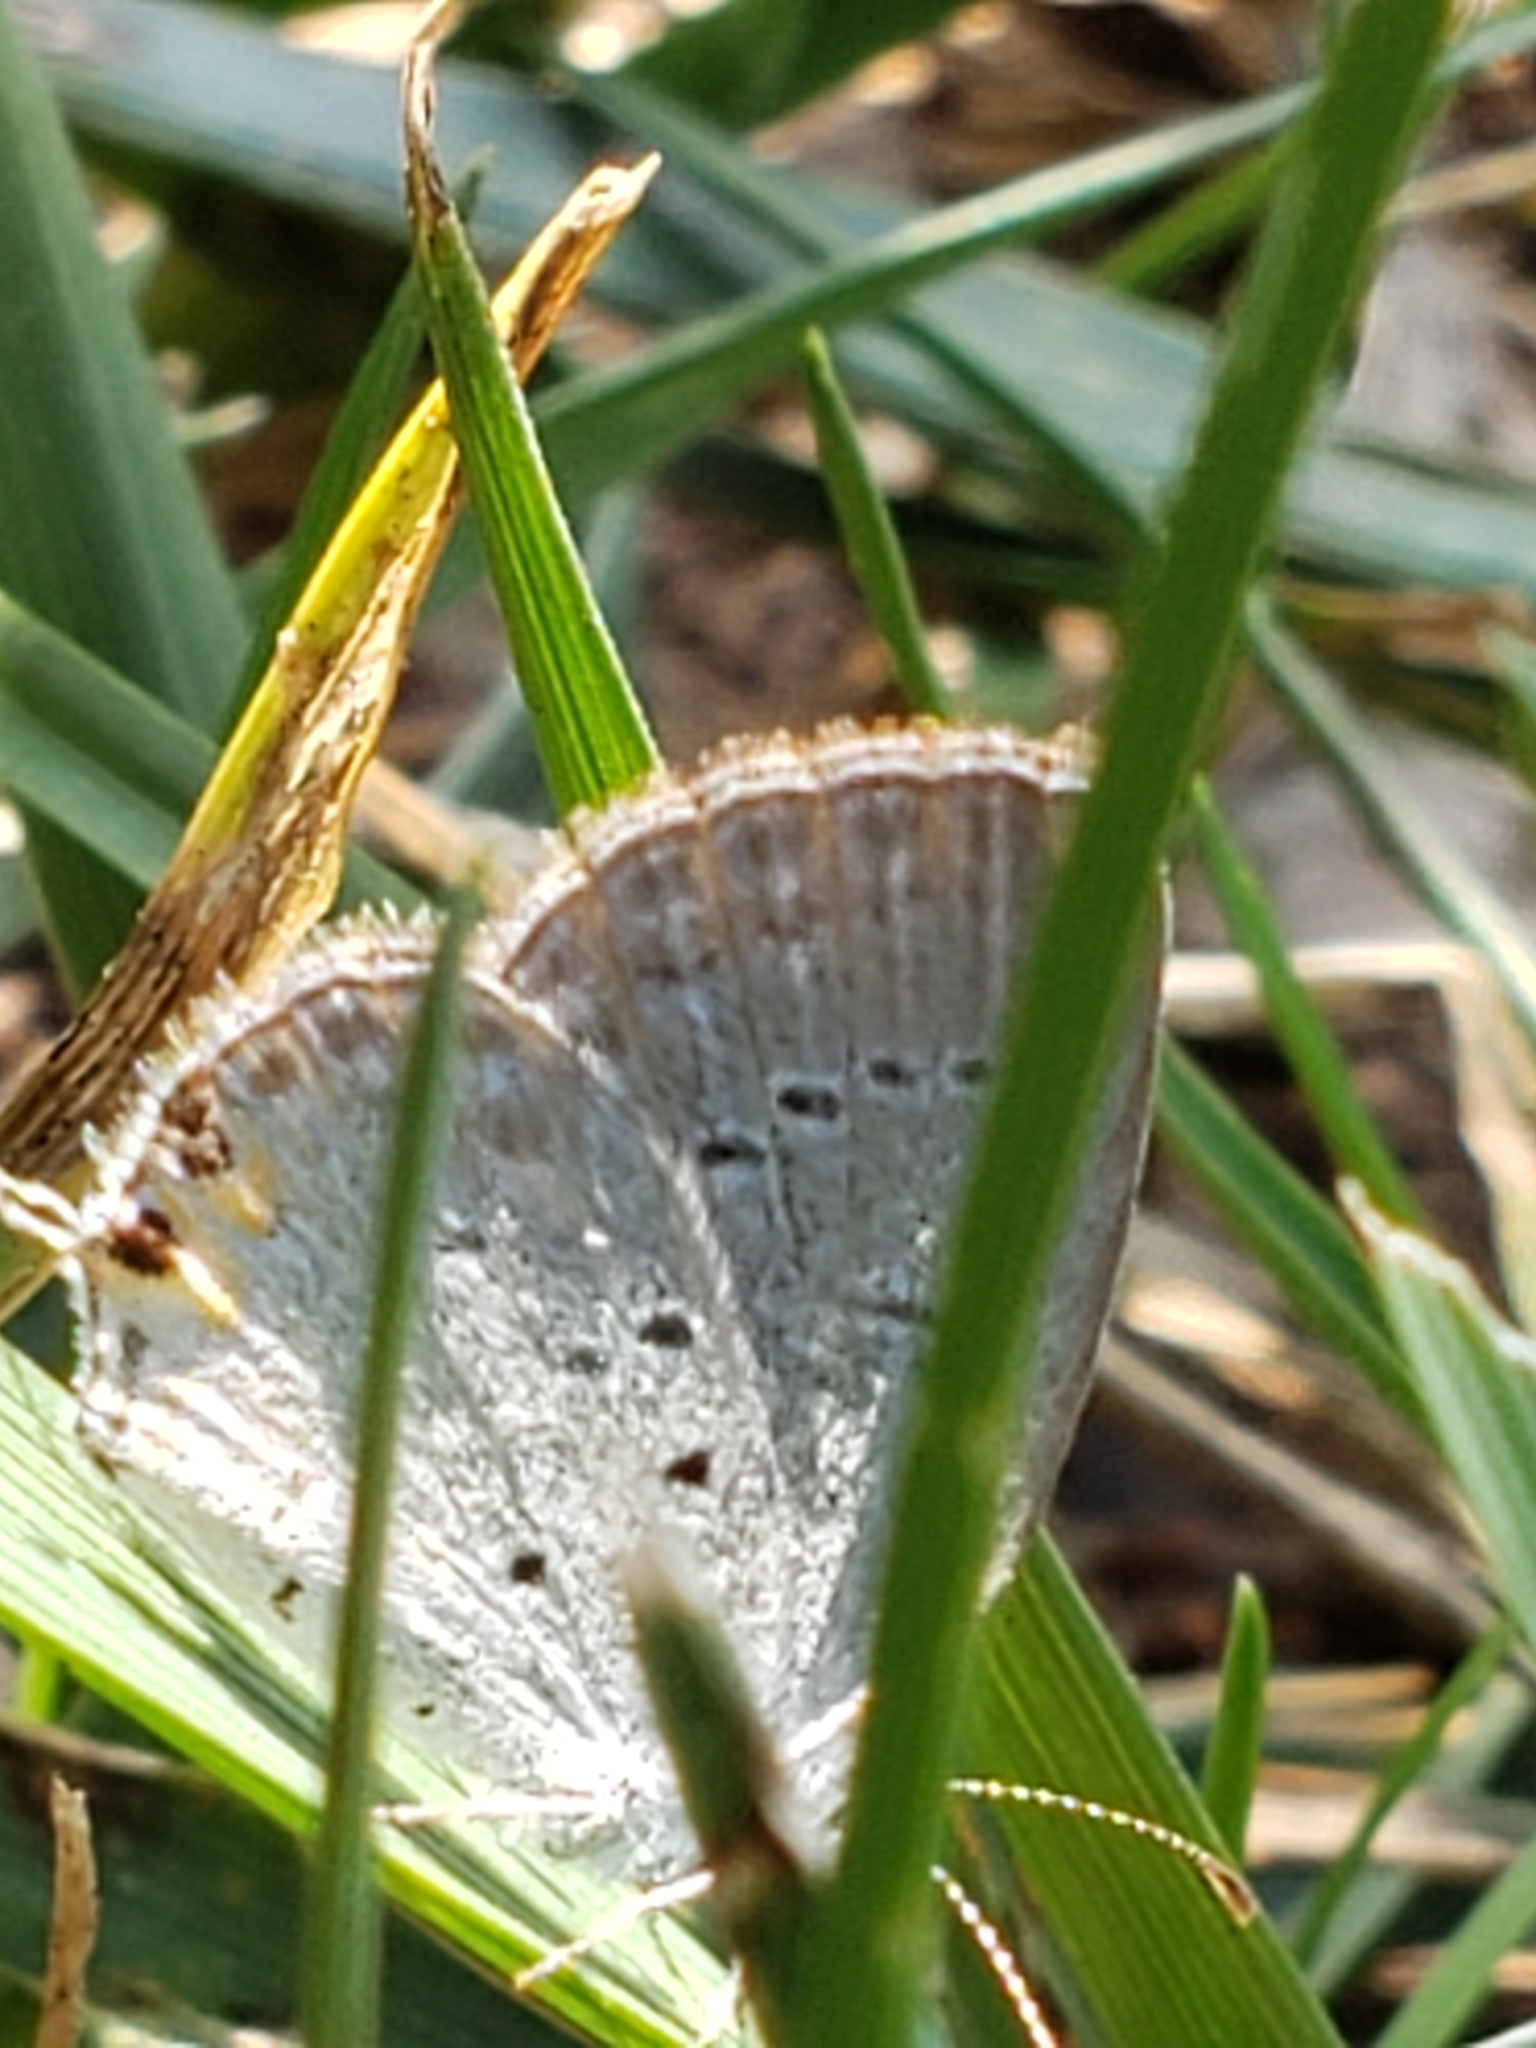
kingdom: Animalia
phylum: Arthropoda
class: Insecta
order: Lepidoptera
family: Lycaenidae
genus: Elkalyce
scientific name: Elkalyce comyntas
